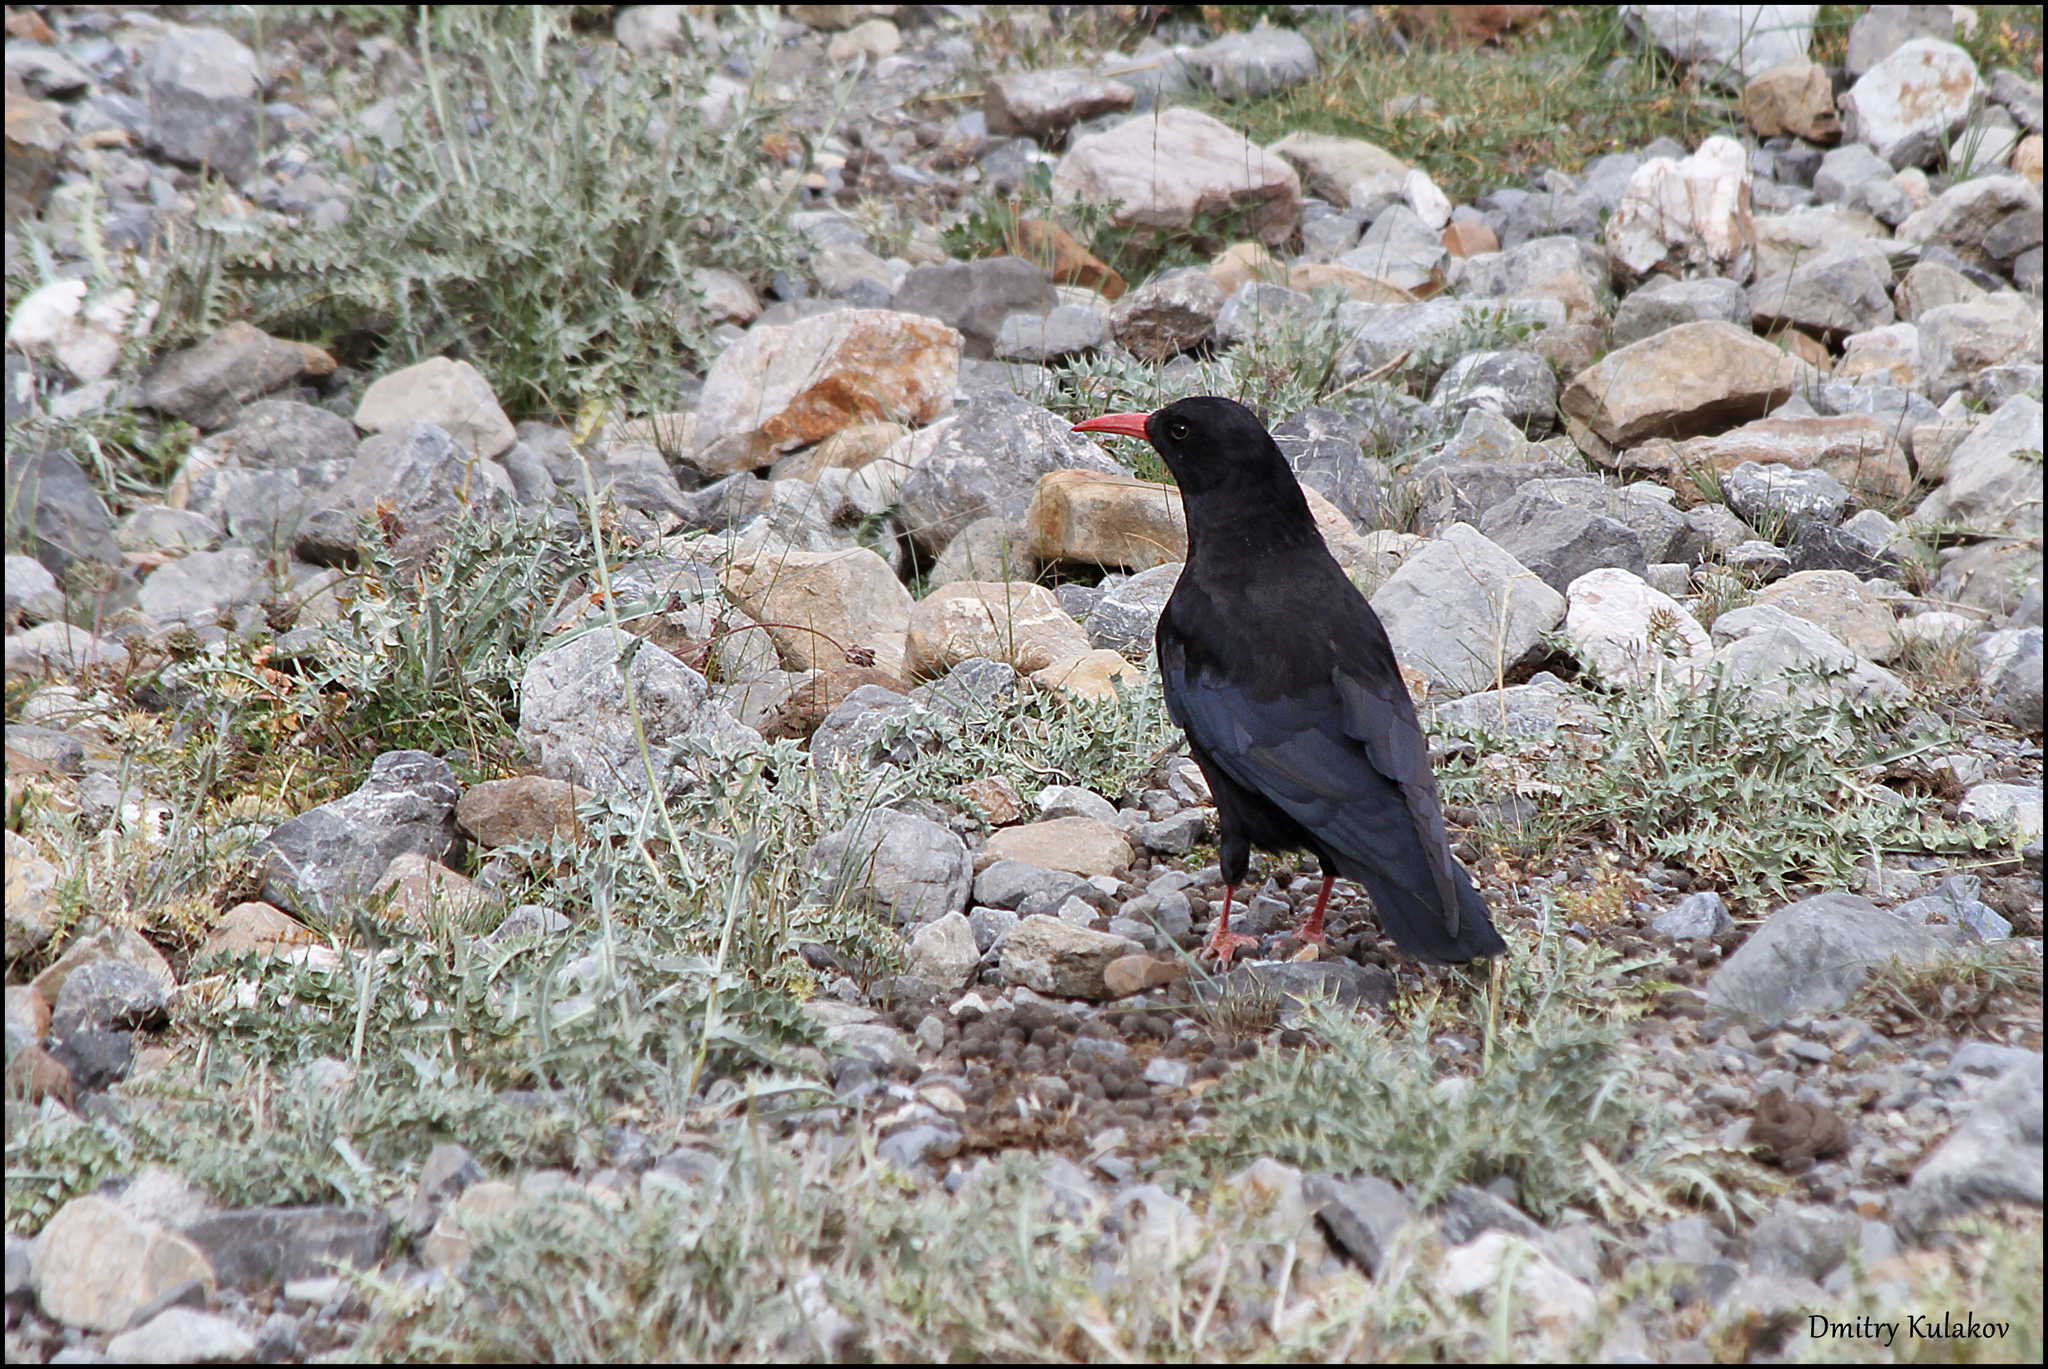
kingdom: Animalia
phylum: Chordata
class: Aves
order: Passeriformes
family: Corvidae
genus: Pyrrhocorax
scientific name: Pyrrhocorax pyrrhocorax
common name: Red-billed chough
